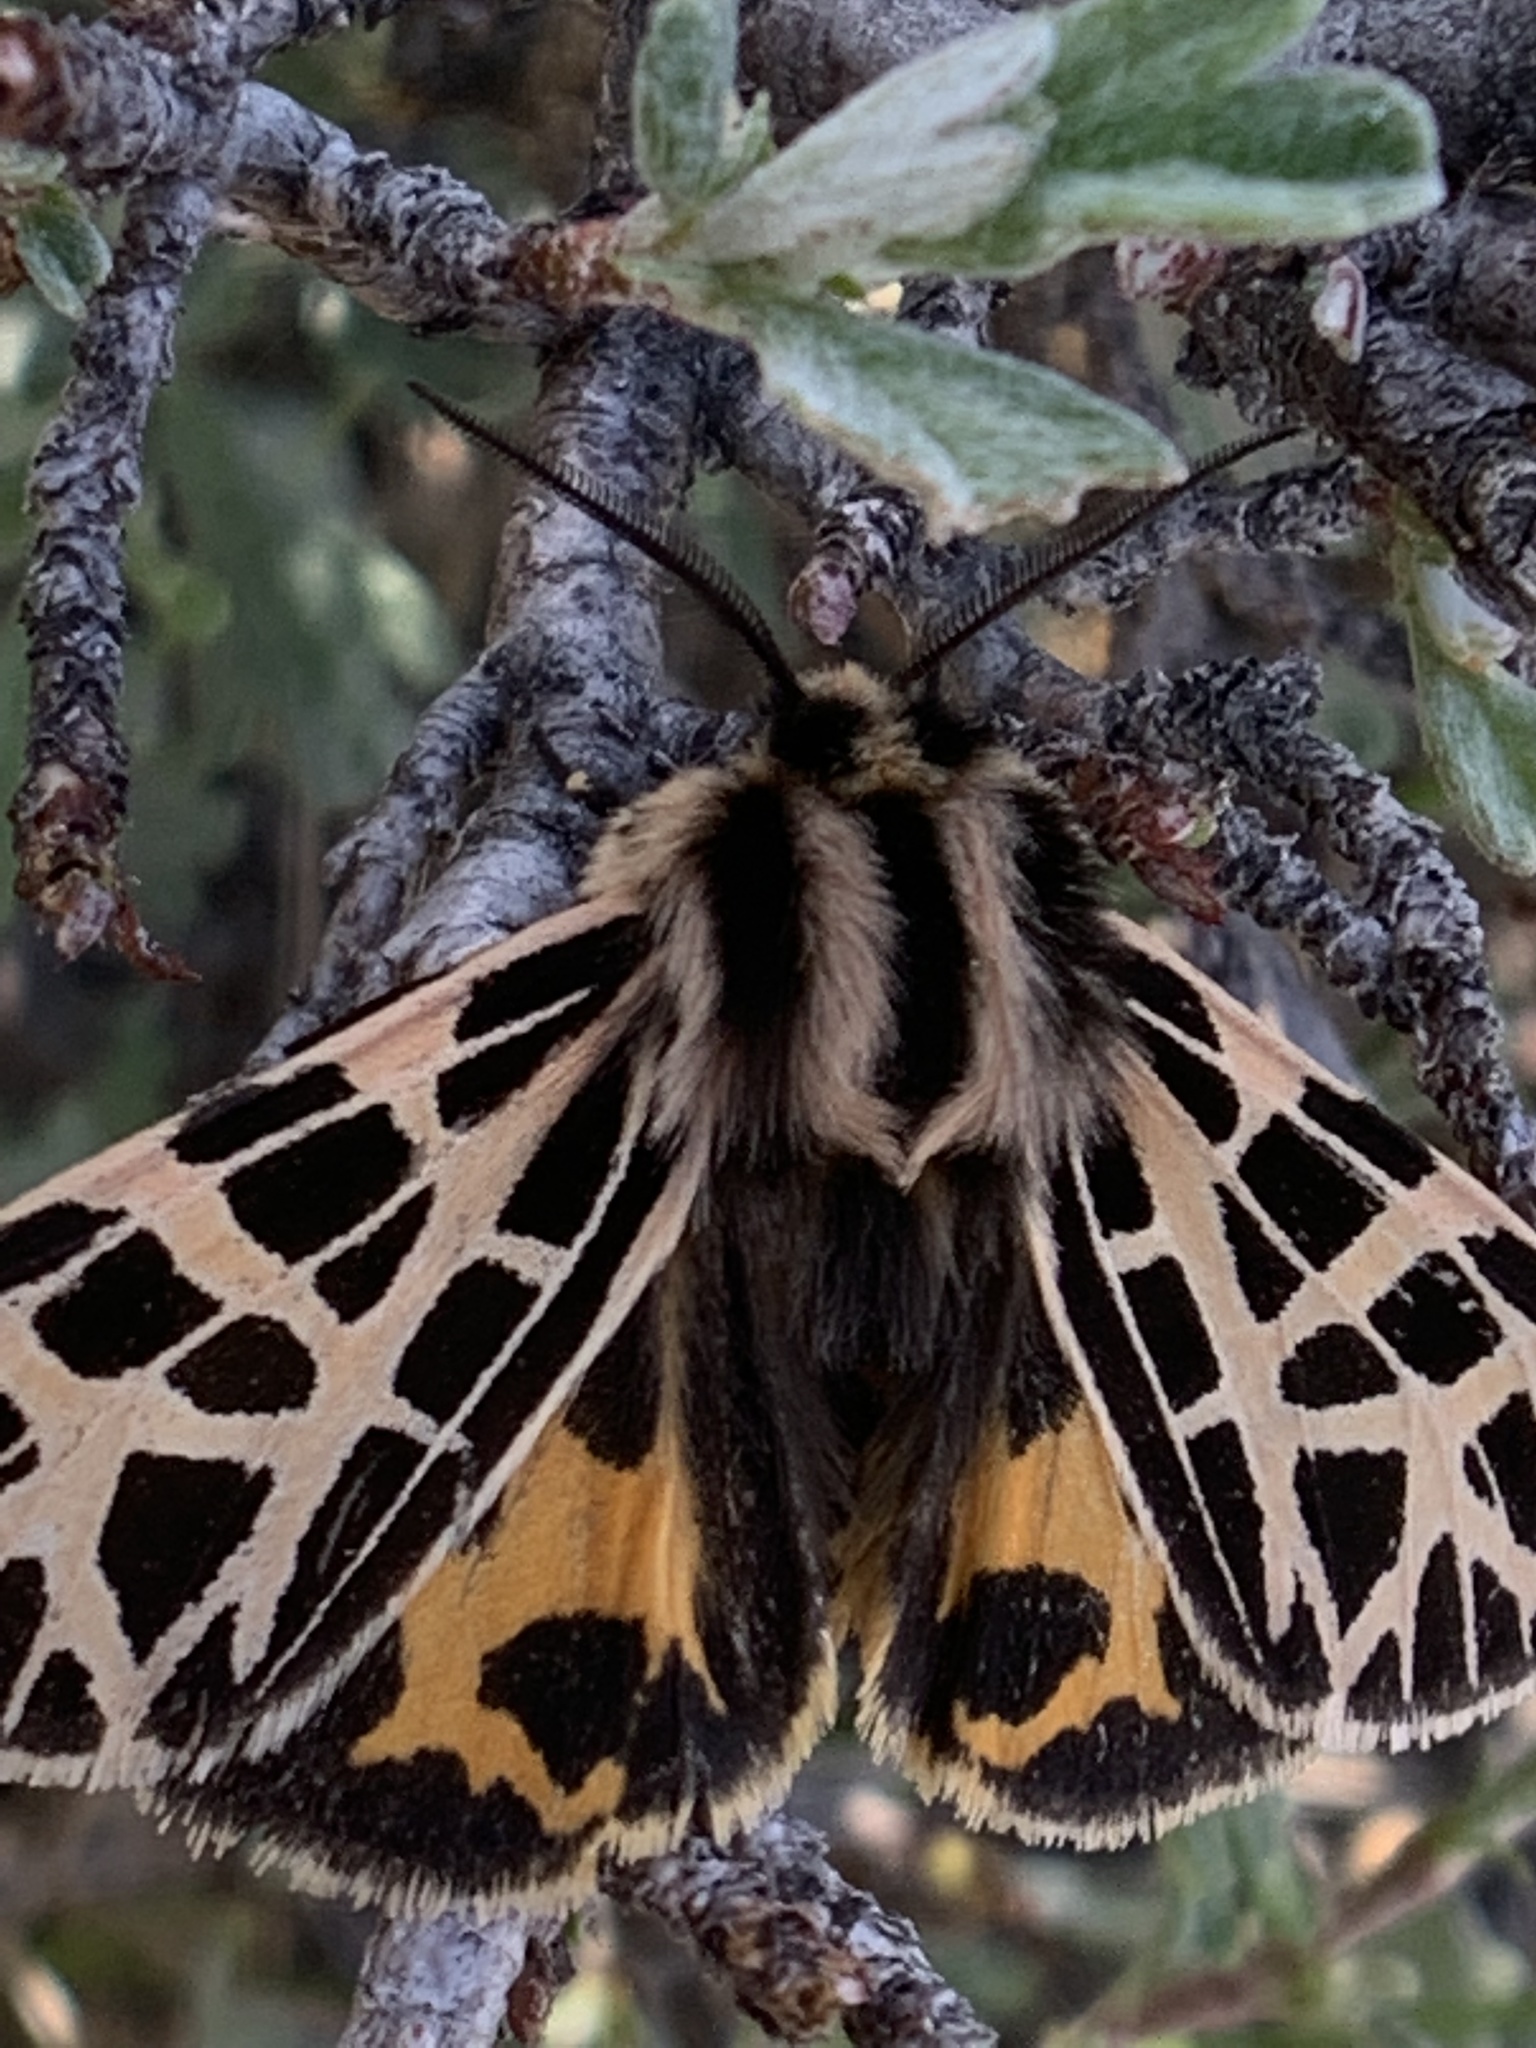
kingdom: Animalia
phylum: Arthropoda
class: Insecta
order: Lepidoptera
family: Erebidae
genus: Apantesis
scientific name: Apantesis
